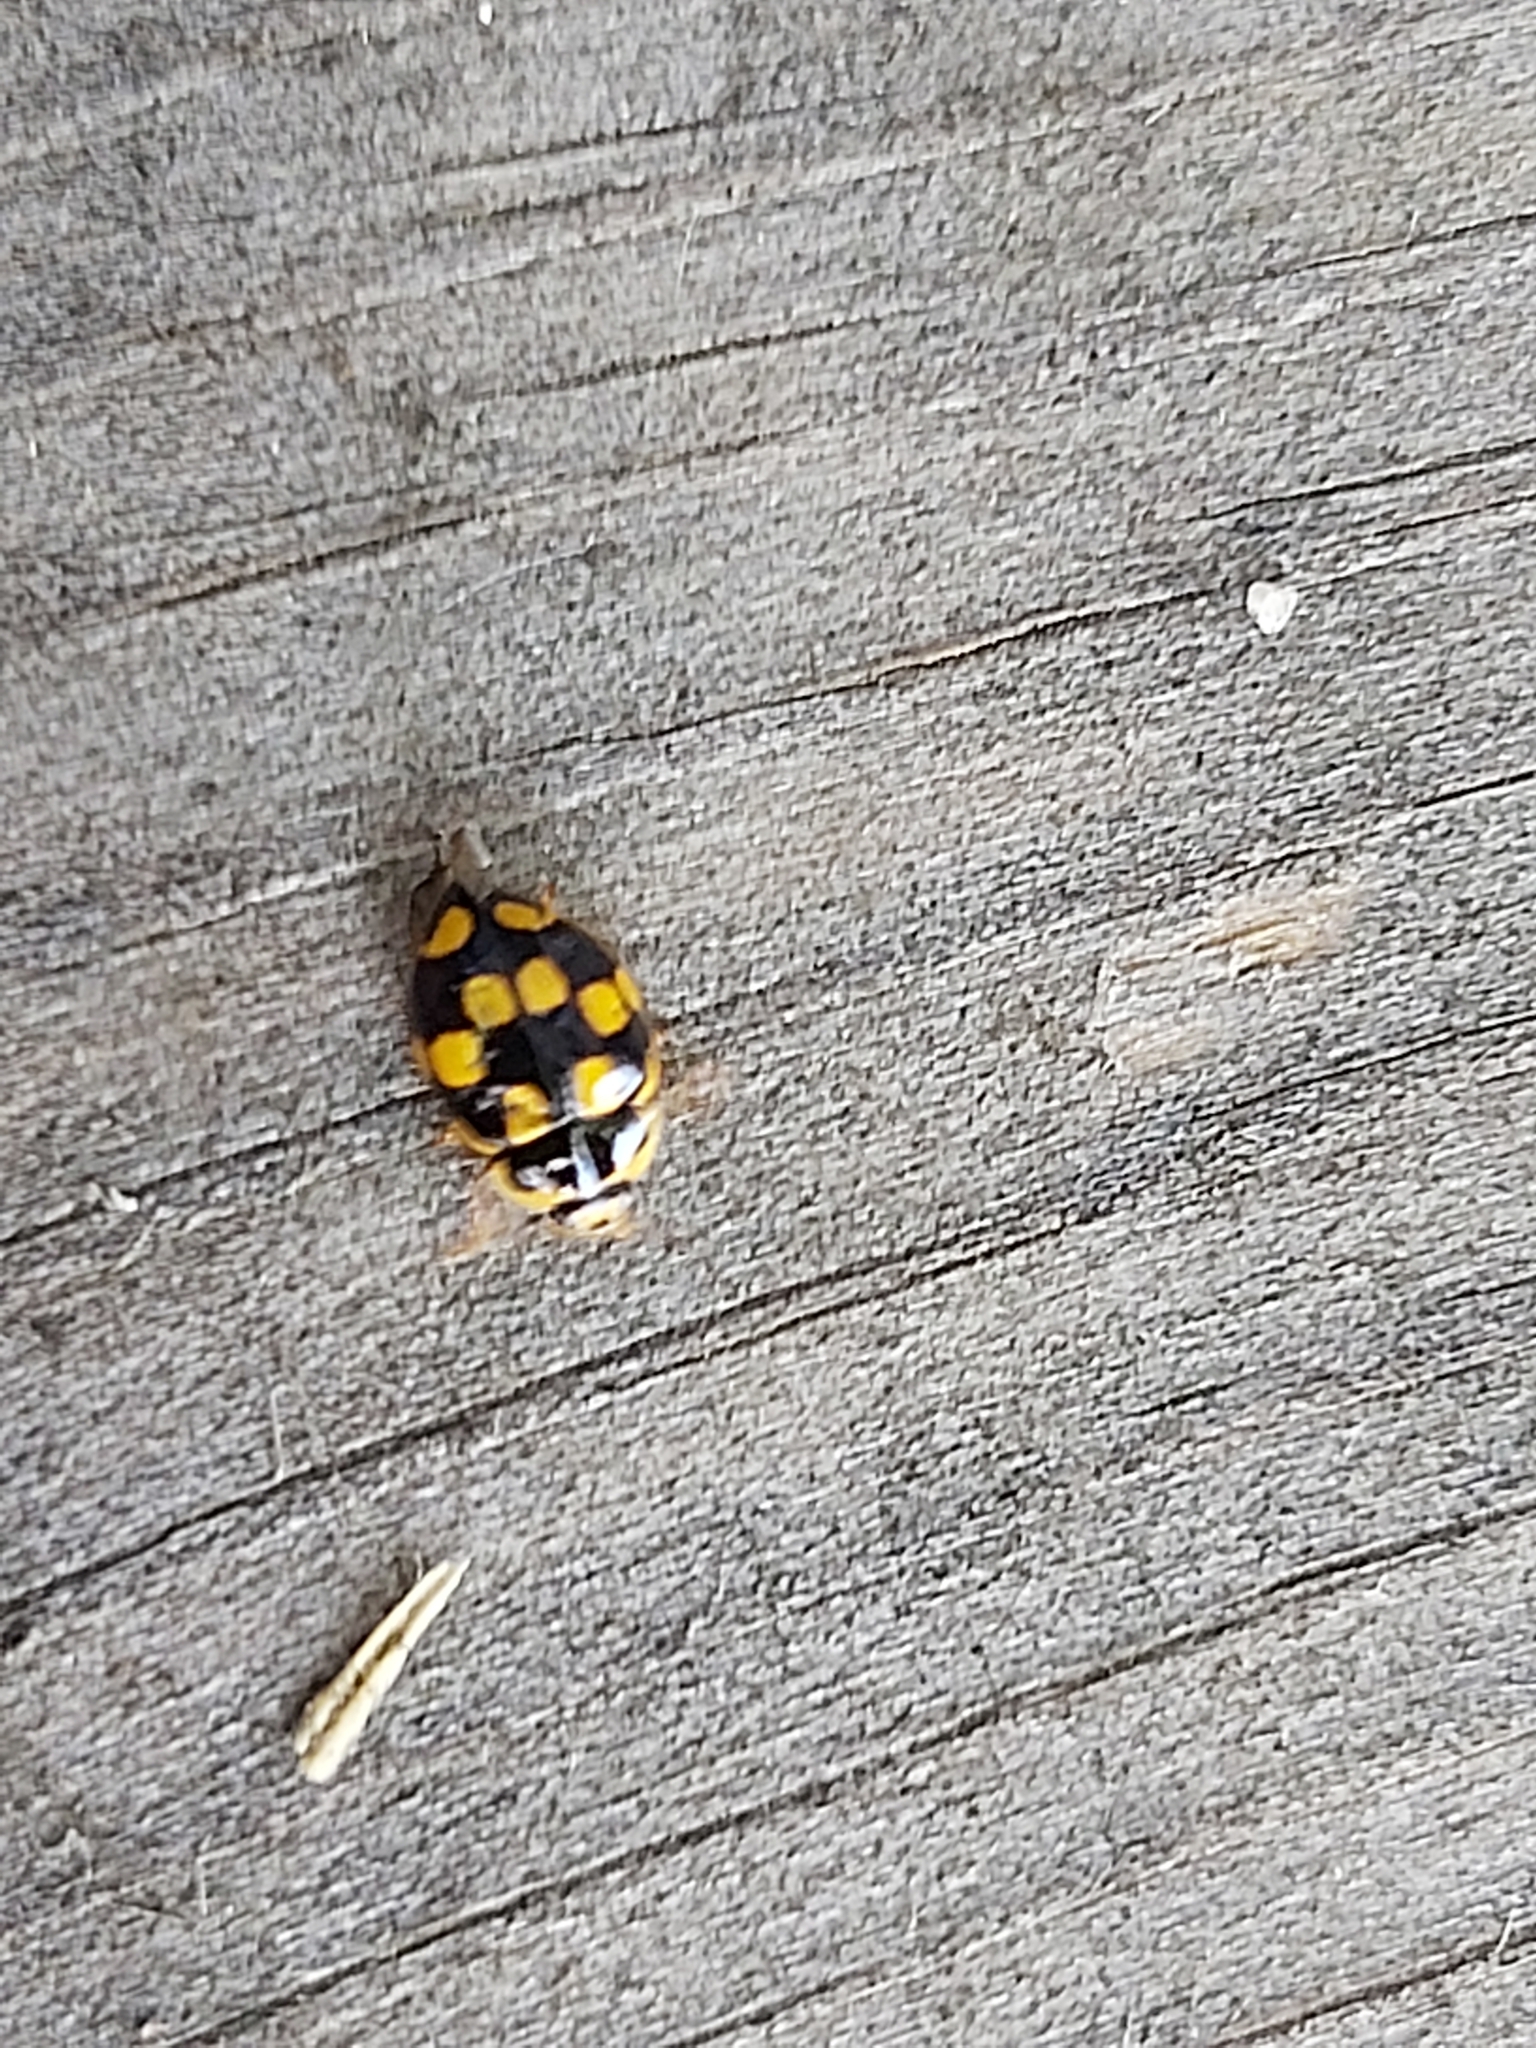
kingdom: Animalia
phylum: Arthropoda
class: Insecta
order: Coleoptera
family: Coccinellidae
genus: Propylaea
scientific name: Propylaea quatuordecimpunctata
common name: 14-spotted ladybird beetle
